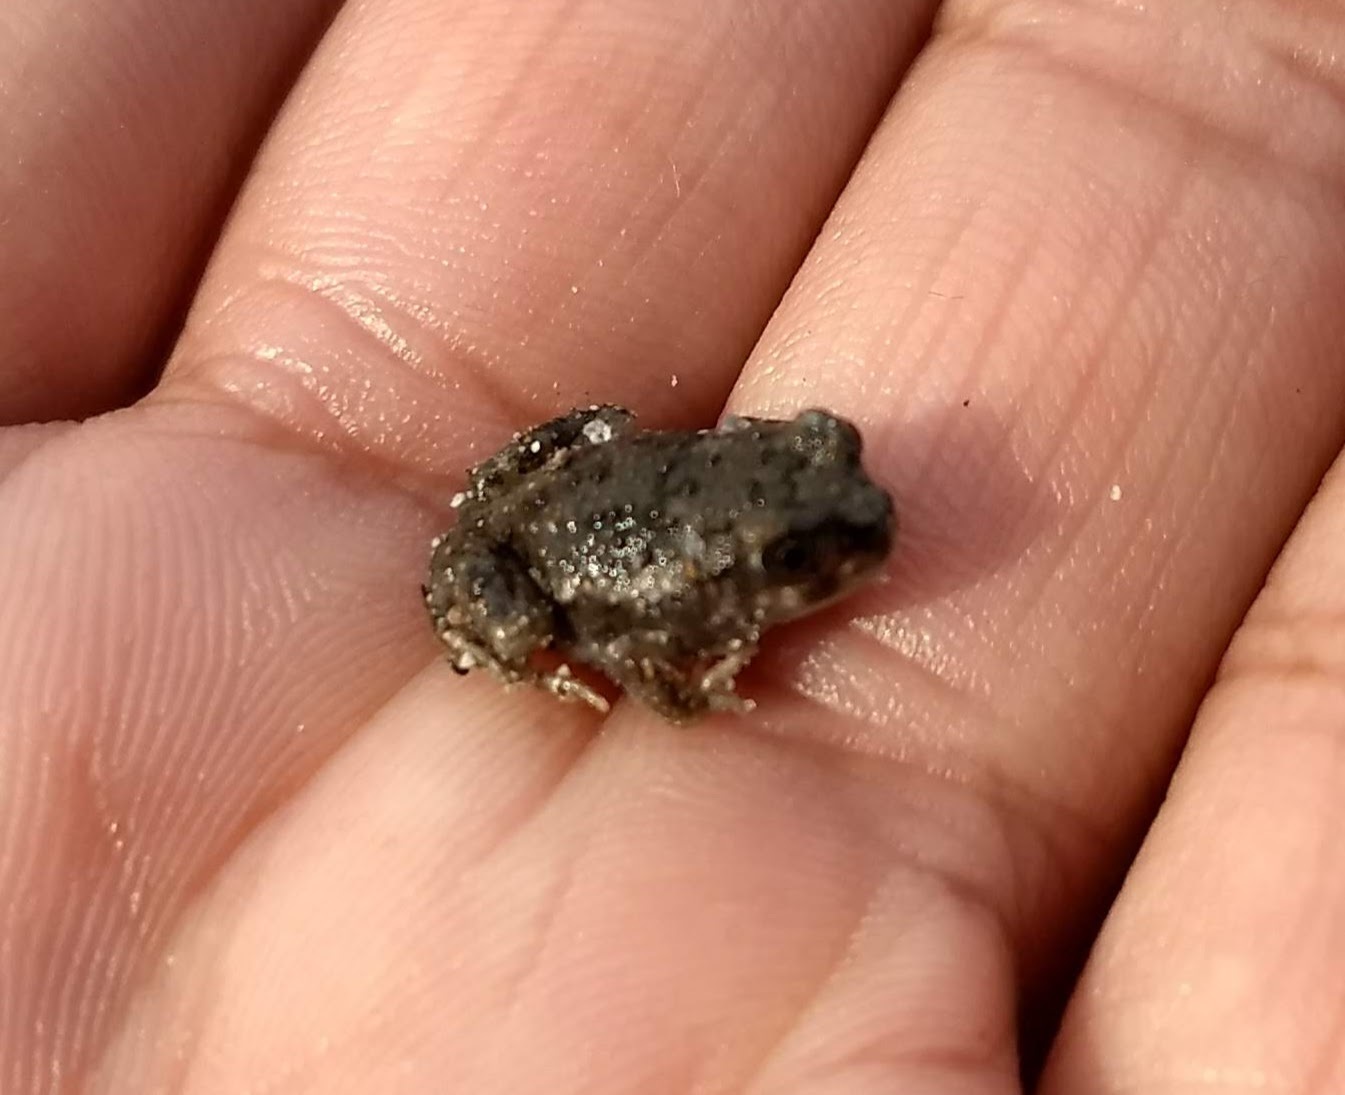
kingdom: Animalia
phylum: Chordata
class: Amphibia
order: Anura
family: Scaphiopodidae
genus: Spea
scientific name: Spea multiplicata
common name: Mexican spadefoot
